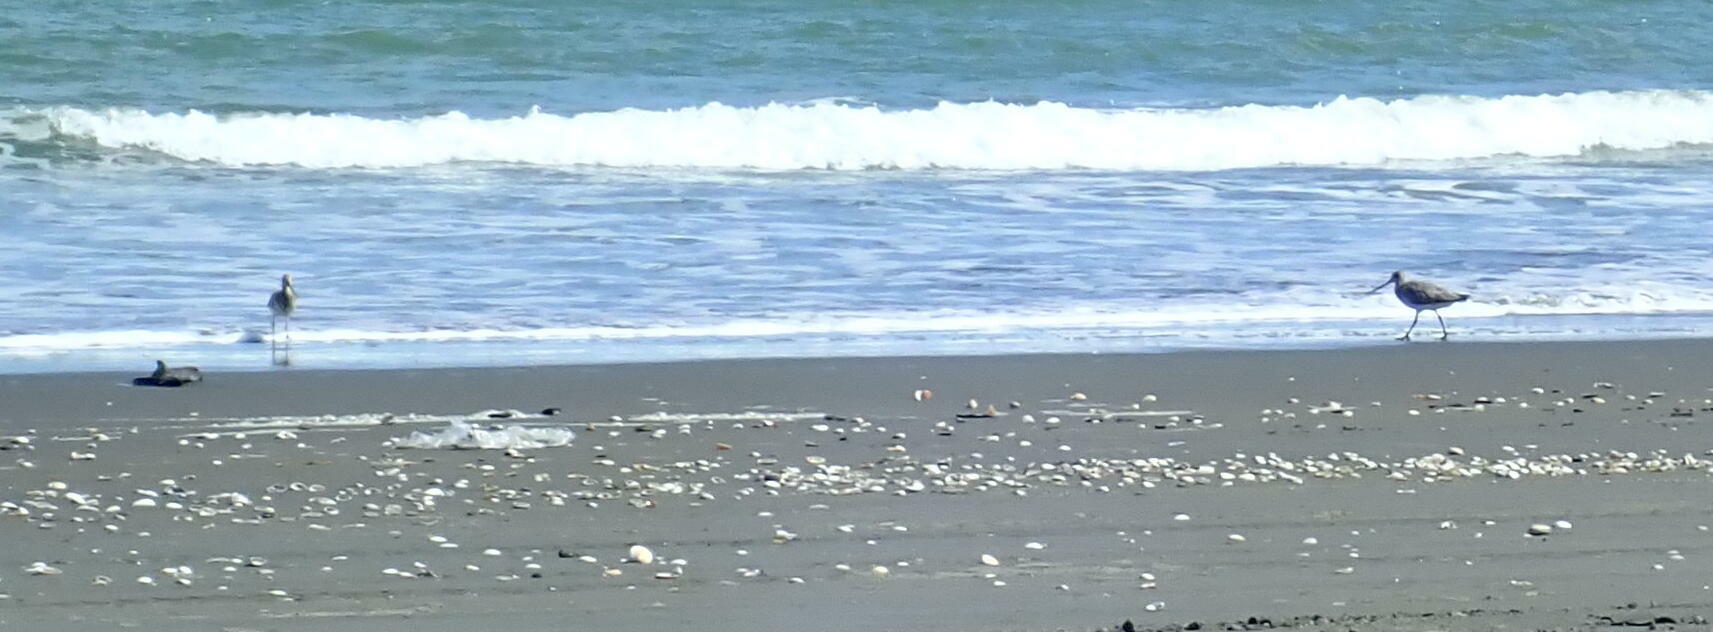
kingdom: Animalia
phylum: Chordata
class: Aves
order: Charadriiformes
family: Scolopacidae
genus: Limosa
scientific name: Limosa lapponica
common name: Bar-tailed godwit
